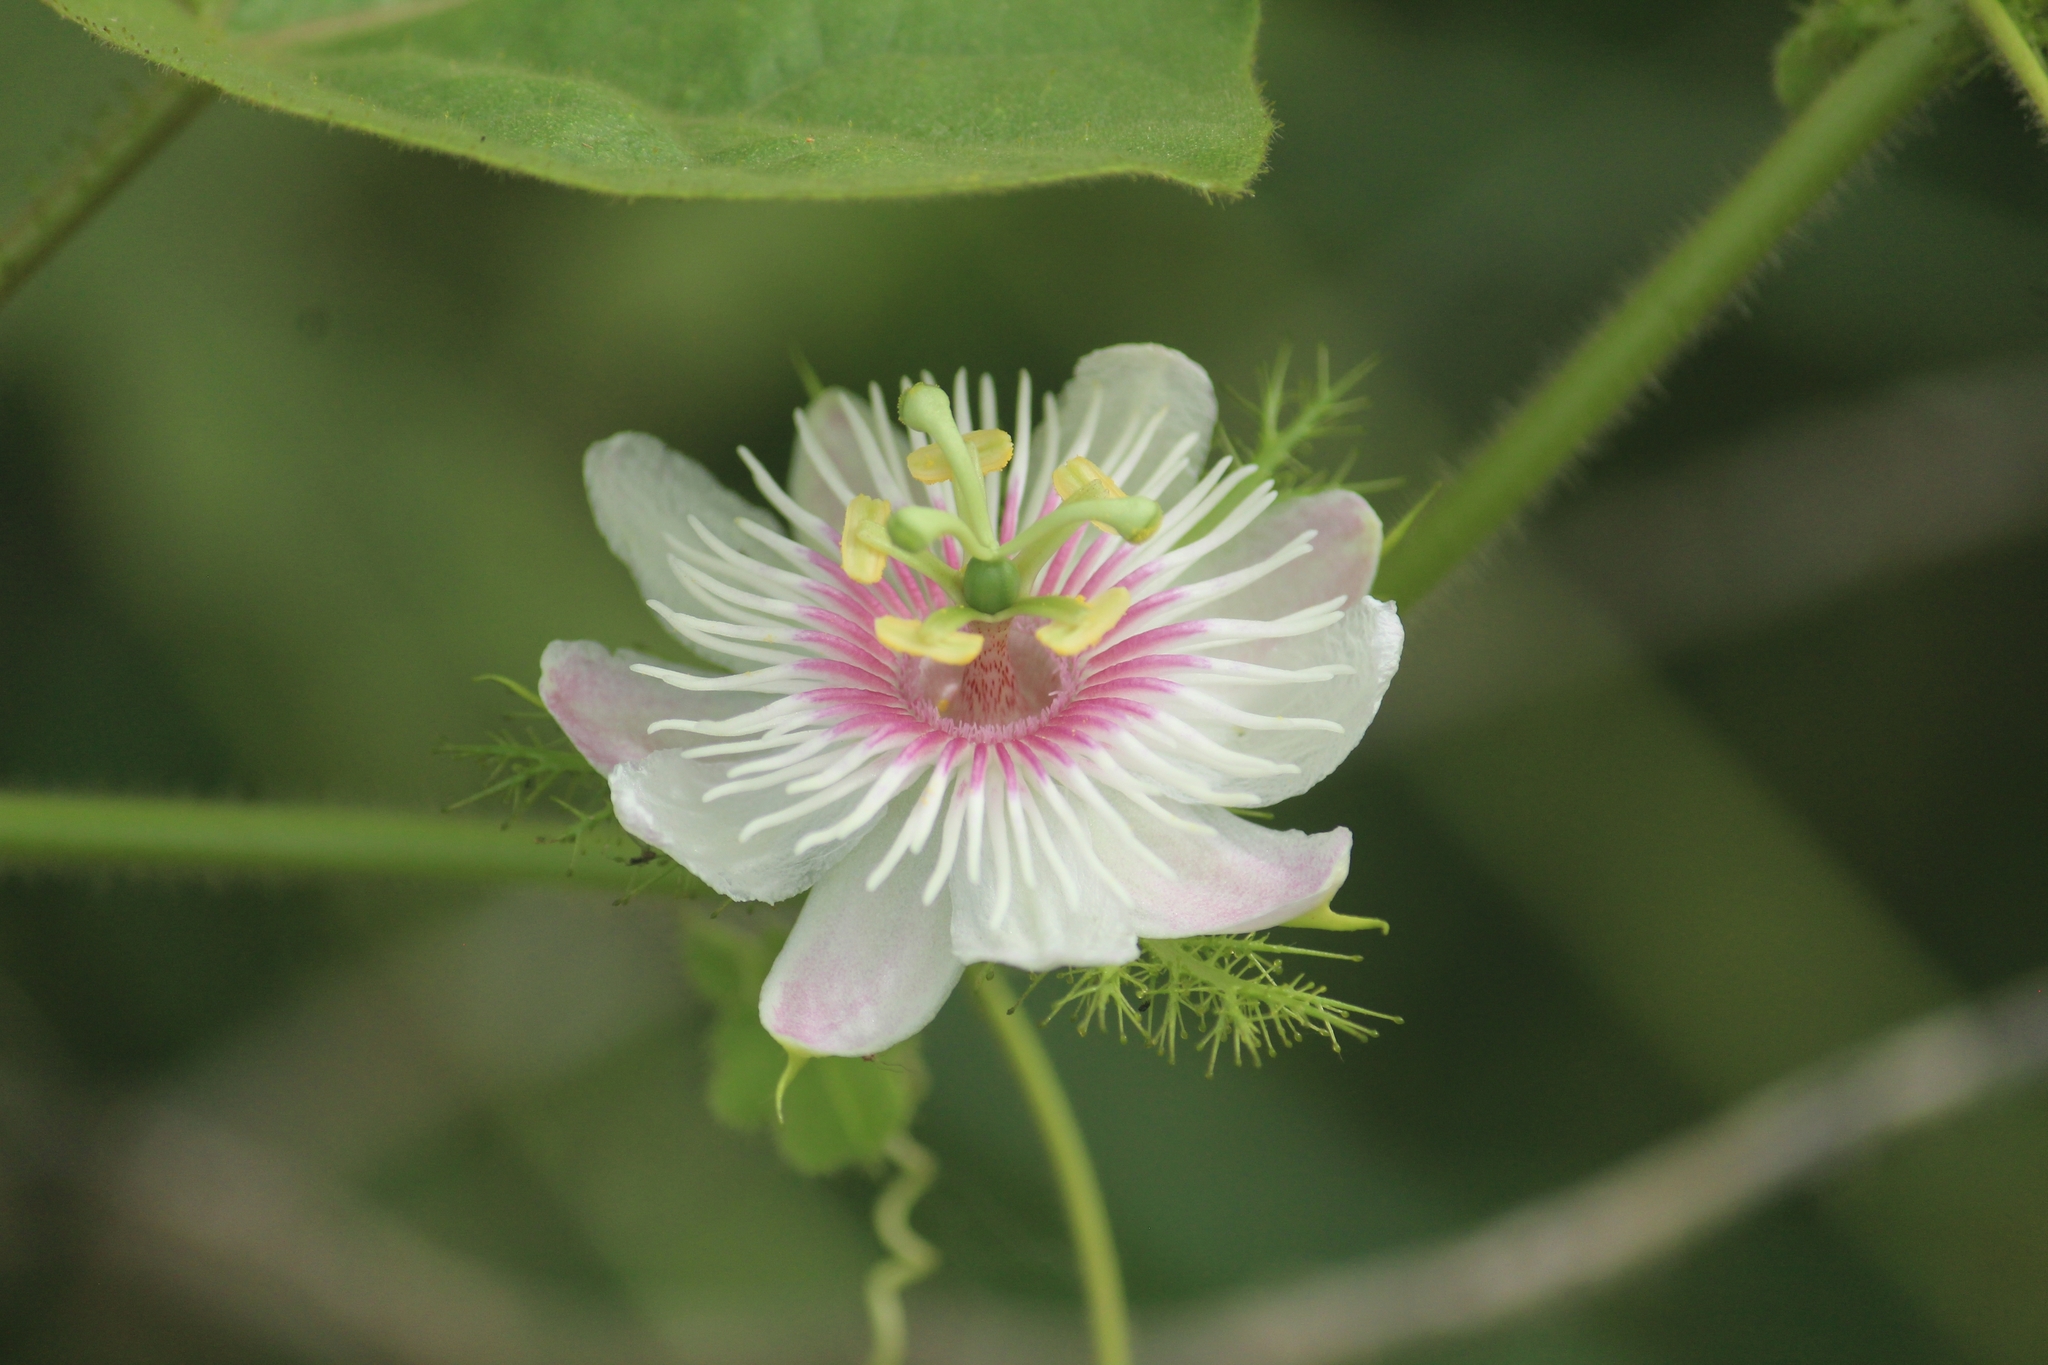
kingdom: Plantae
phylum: Tracheophyta
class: Magnoliopsida
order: Malpighiales
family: Passifloraceae
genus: Passiflora
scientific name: Passiflora foetida
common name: Fetid passionflower
